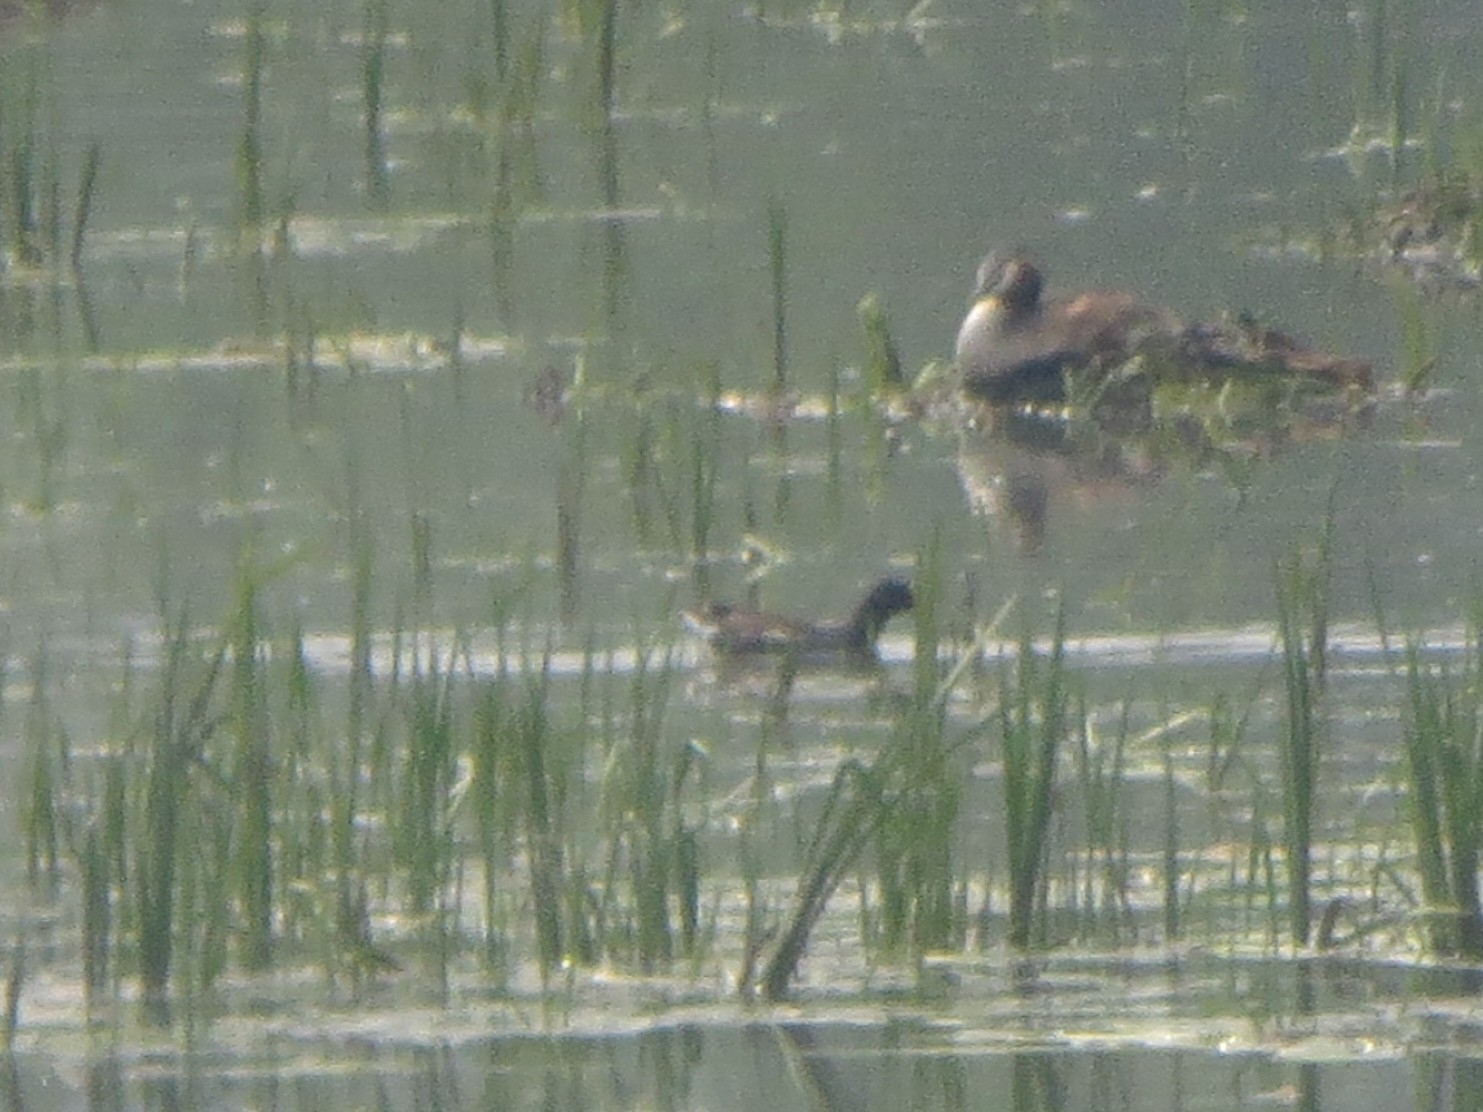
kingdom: Animalia
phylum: Chordata
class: Aves
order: Gruiformes
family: Rallidae
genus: Gallinula
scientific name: Gallinula chloropus
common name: Common moorhen
